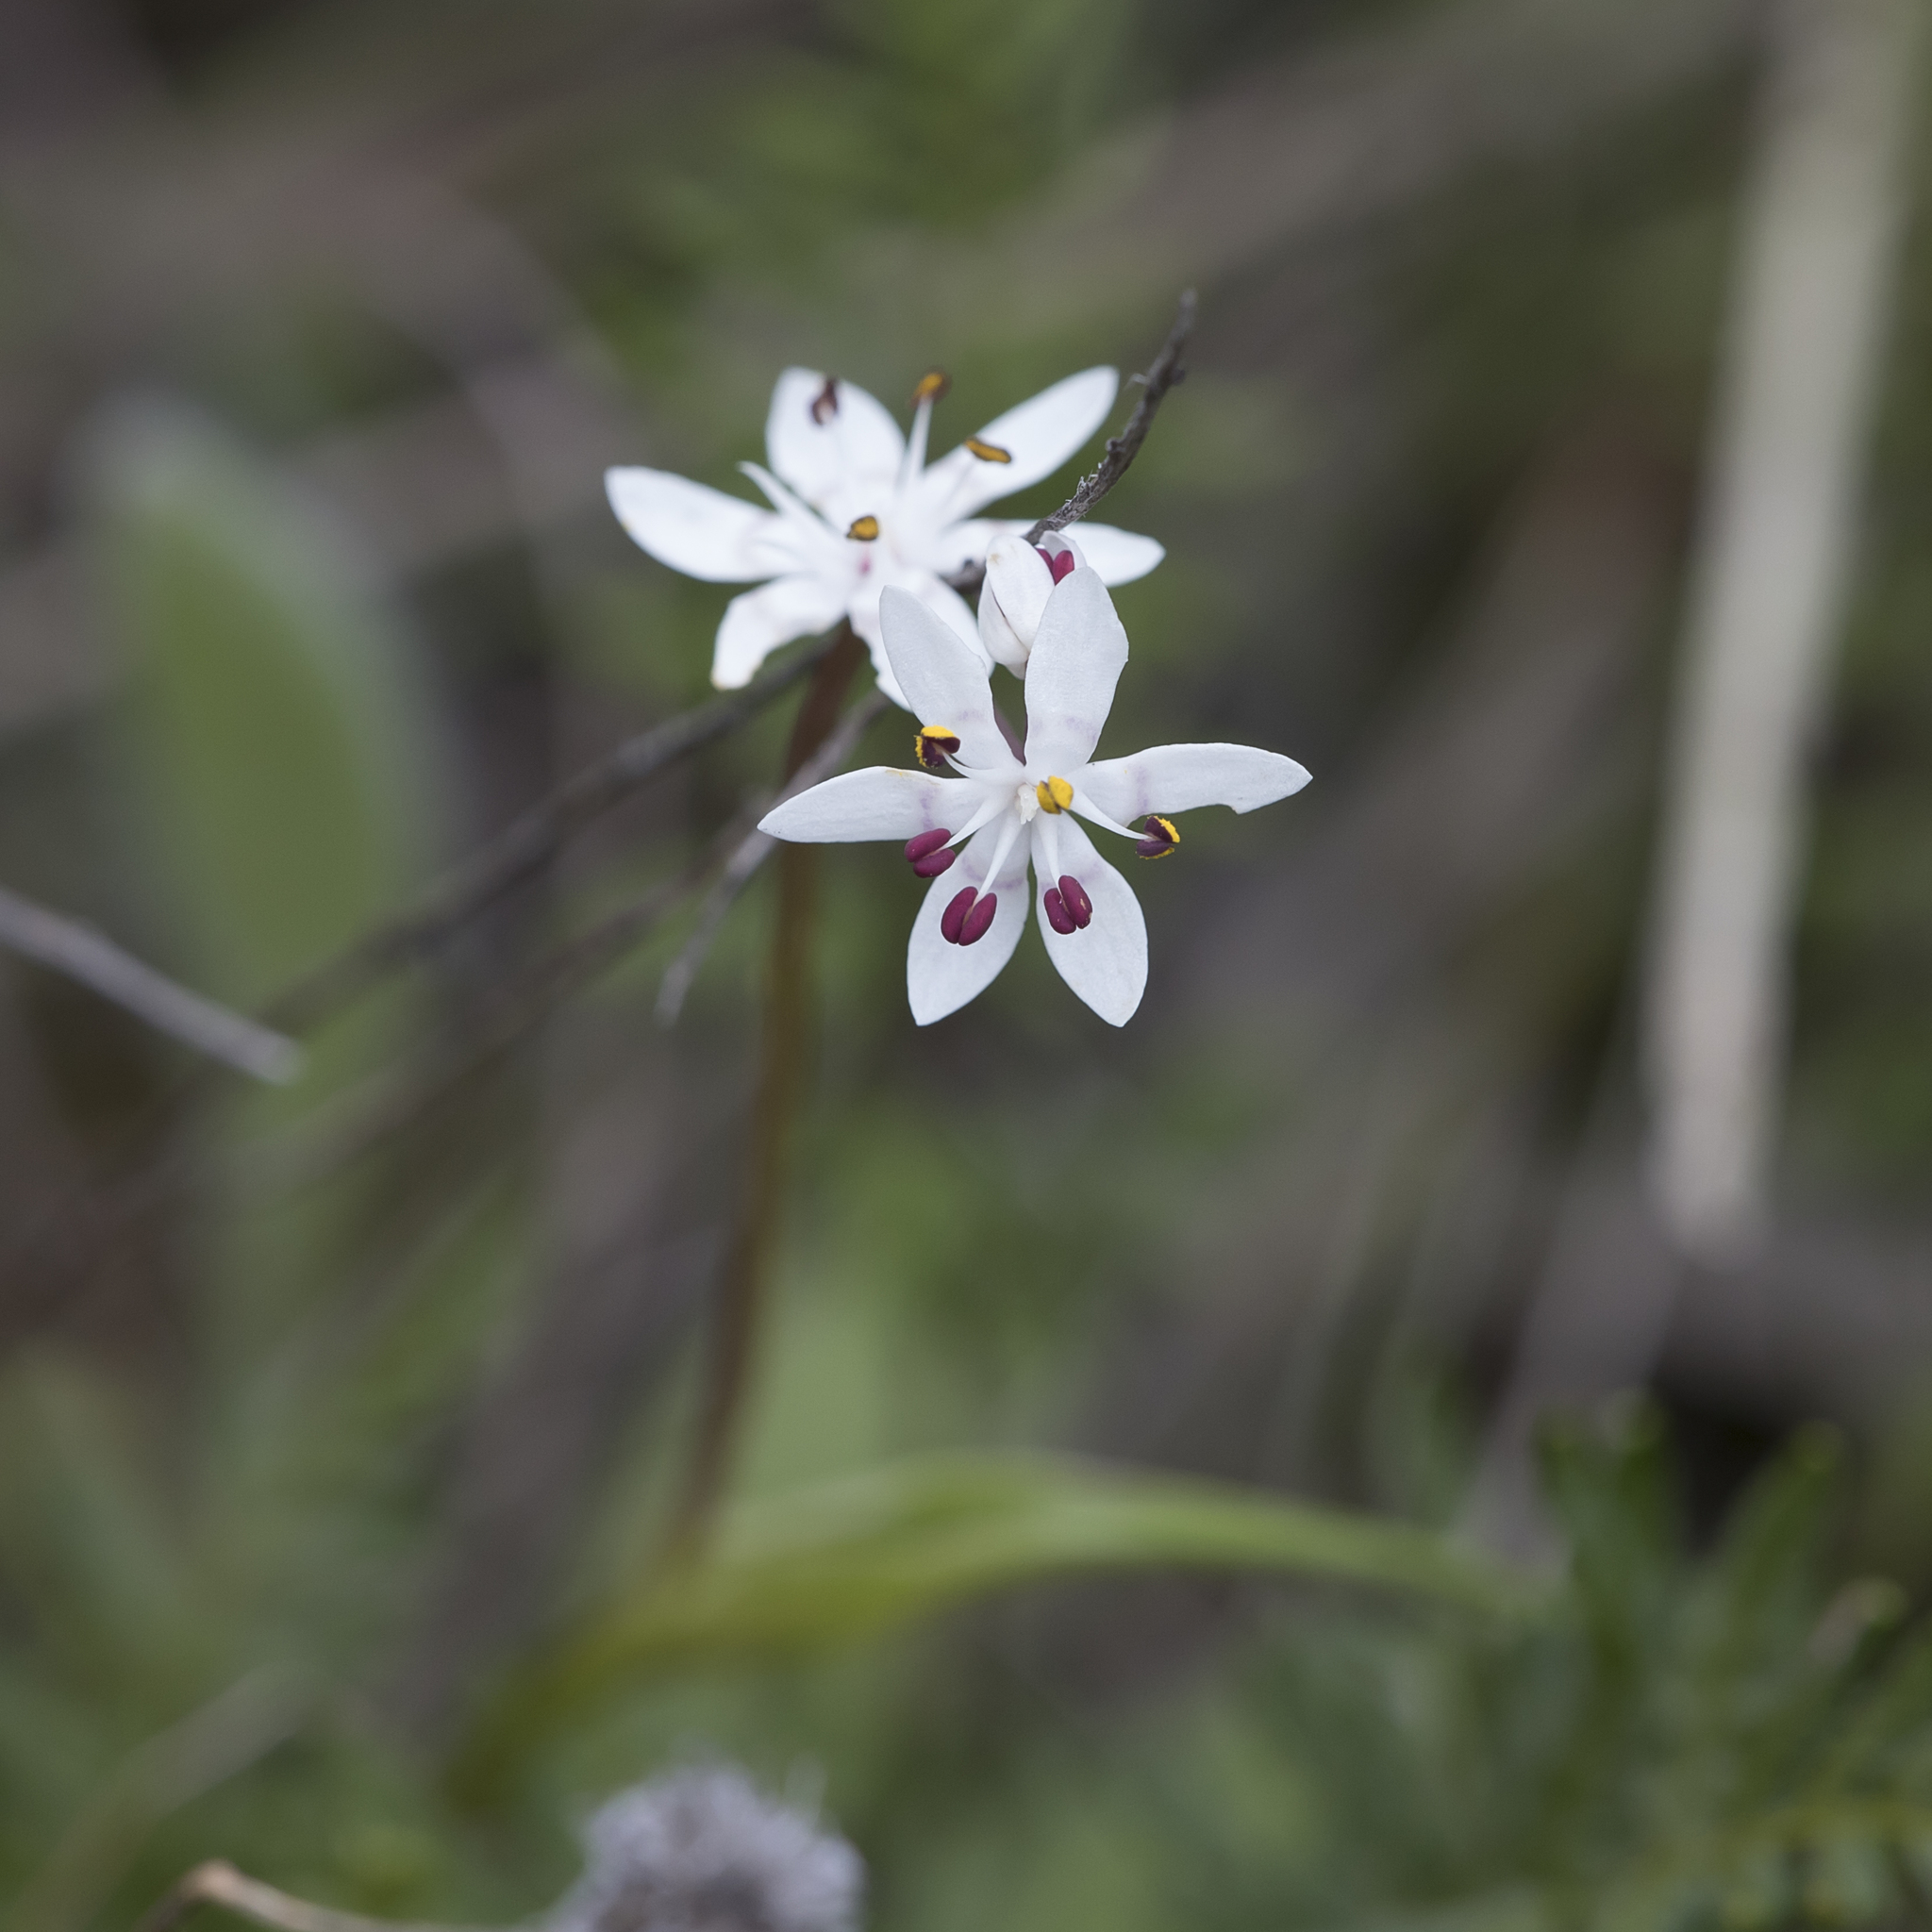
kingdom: Plantae
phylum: Tracheophyta
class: Liliopsida
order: Liliales
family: Colchicaceae
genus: Wurmbea
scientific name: Wurmbea dioica
